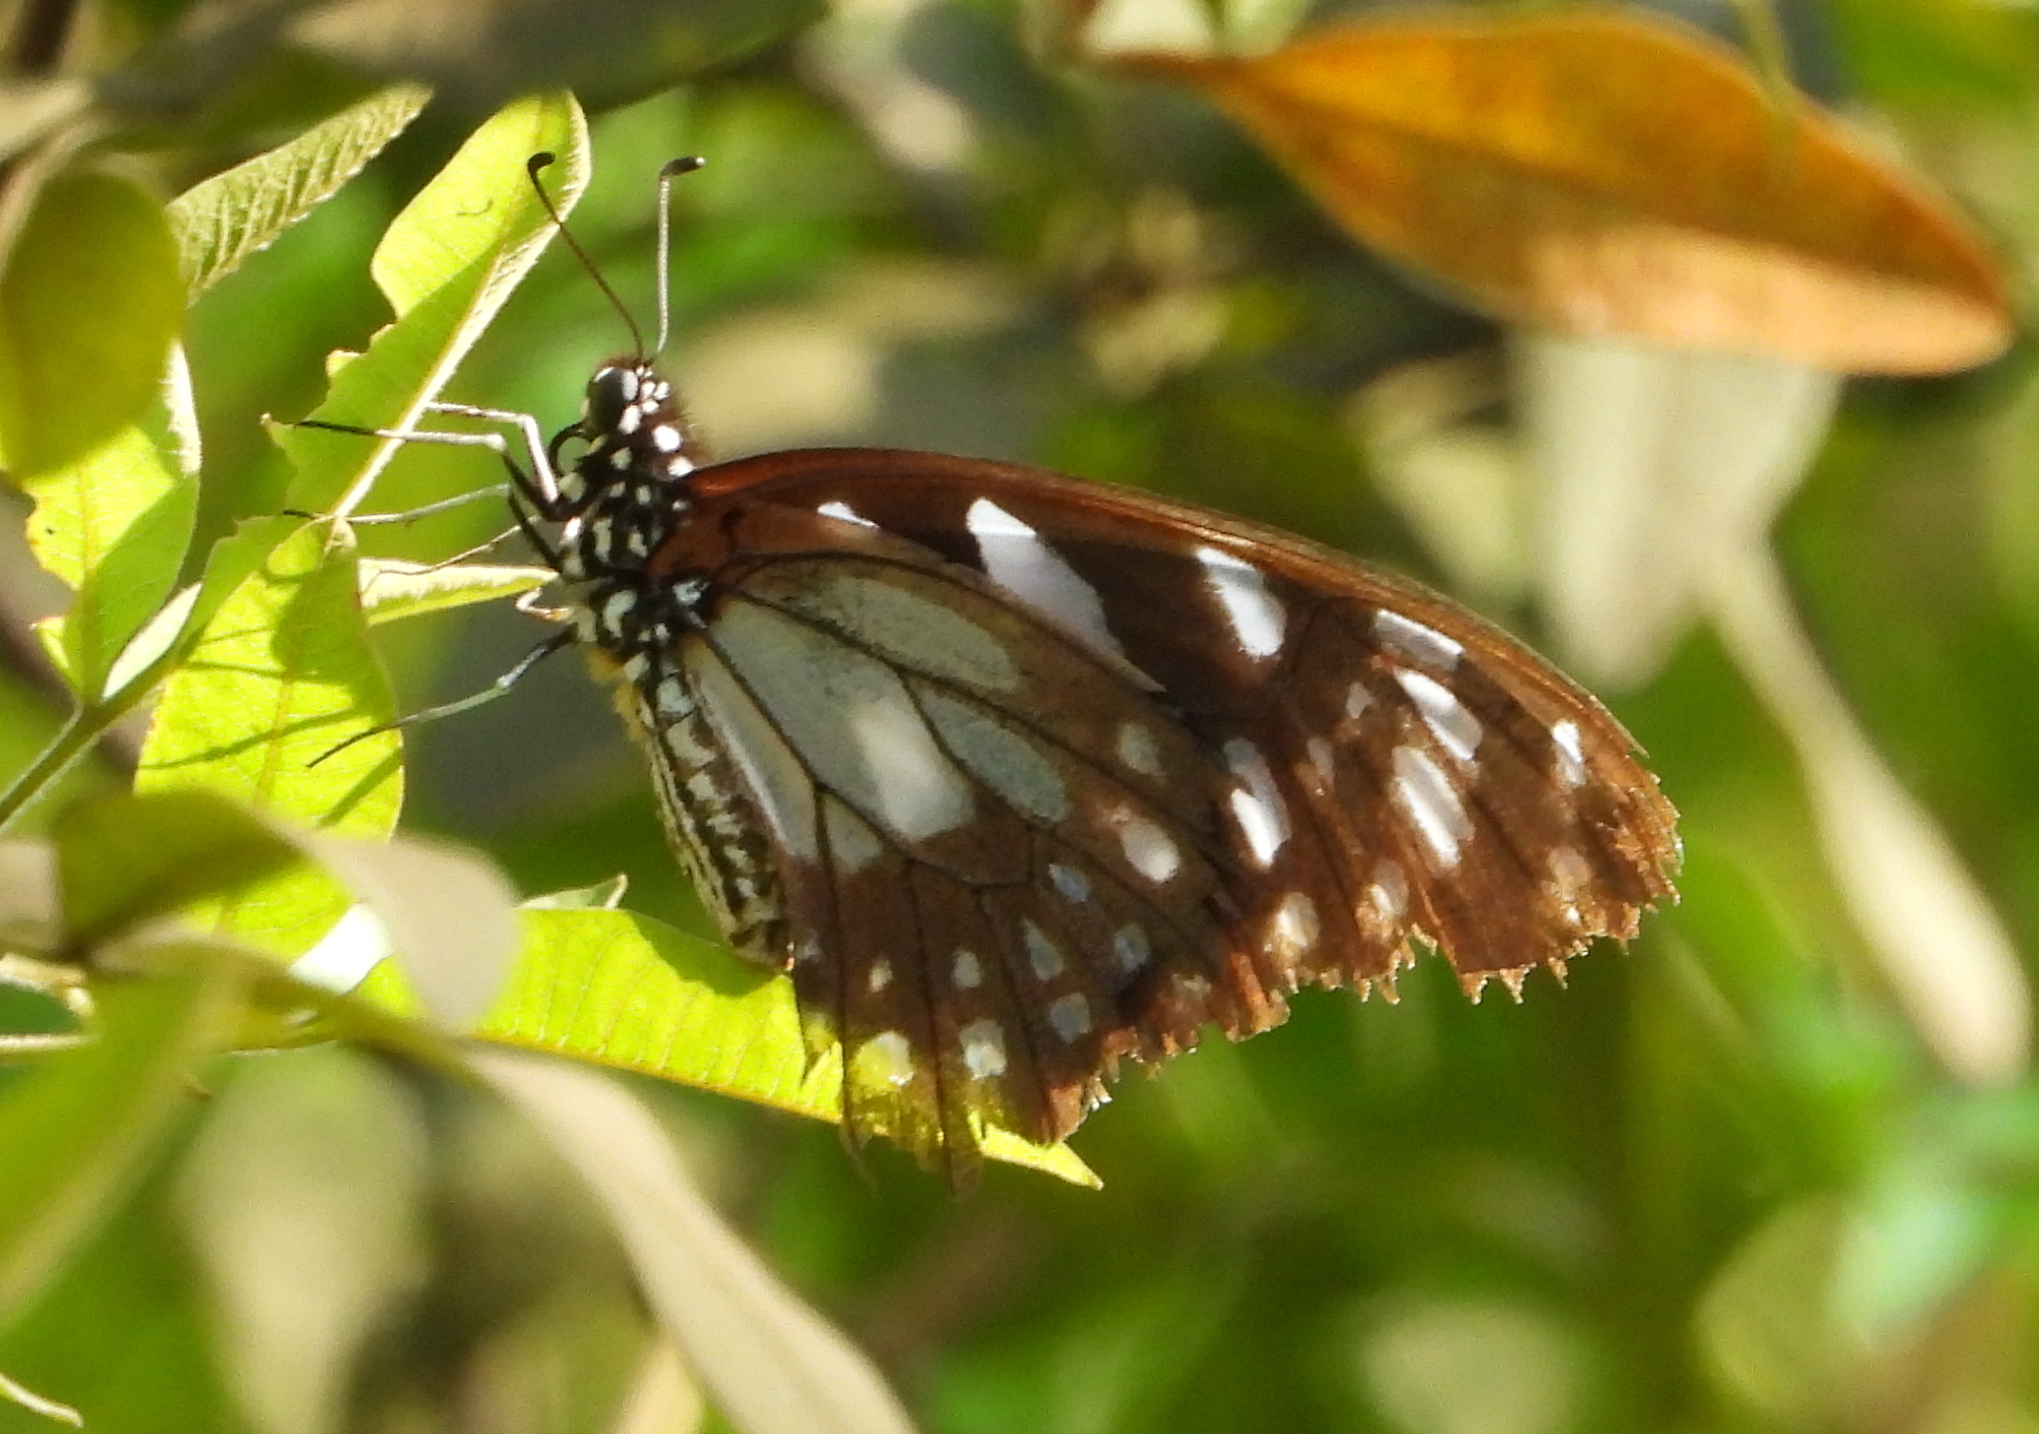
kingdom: Animalia
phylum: Arthropoda
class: Insecta
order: Lepidoptera
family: Papilionidae
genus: Graphium
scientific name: Graphium leonidas
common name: Common graphium
